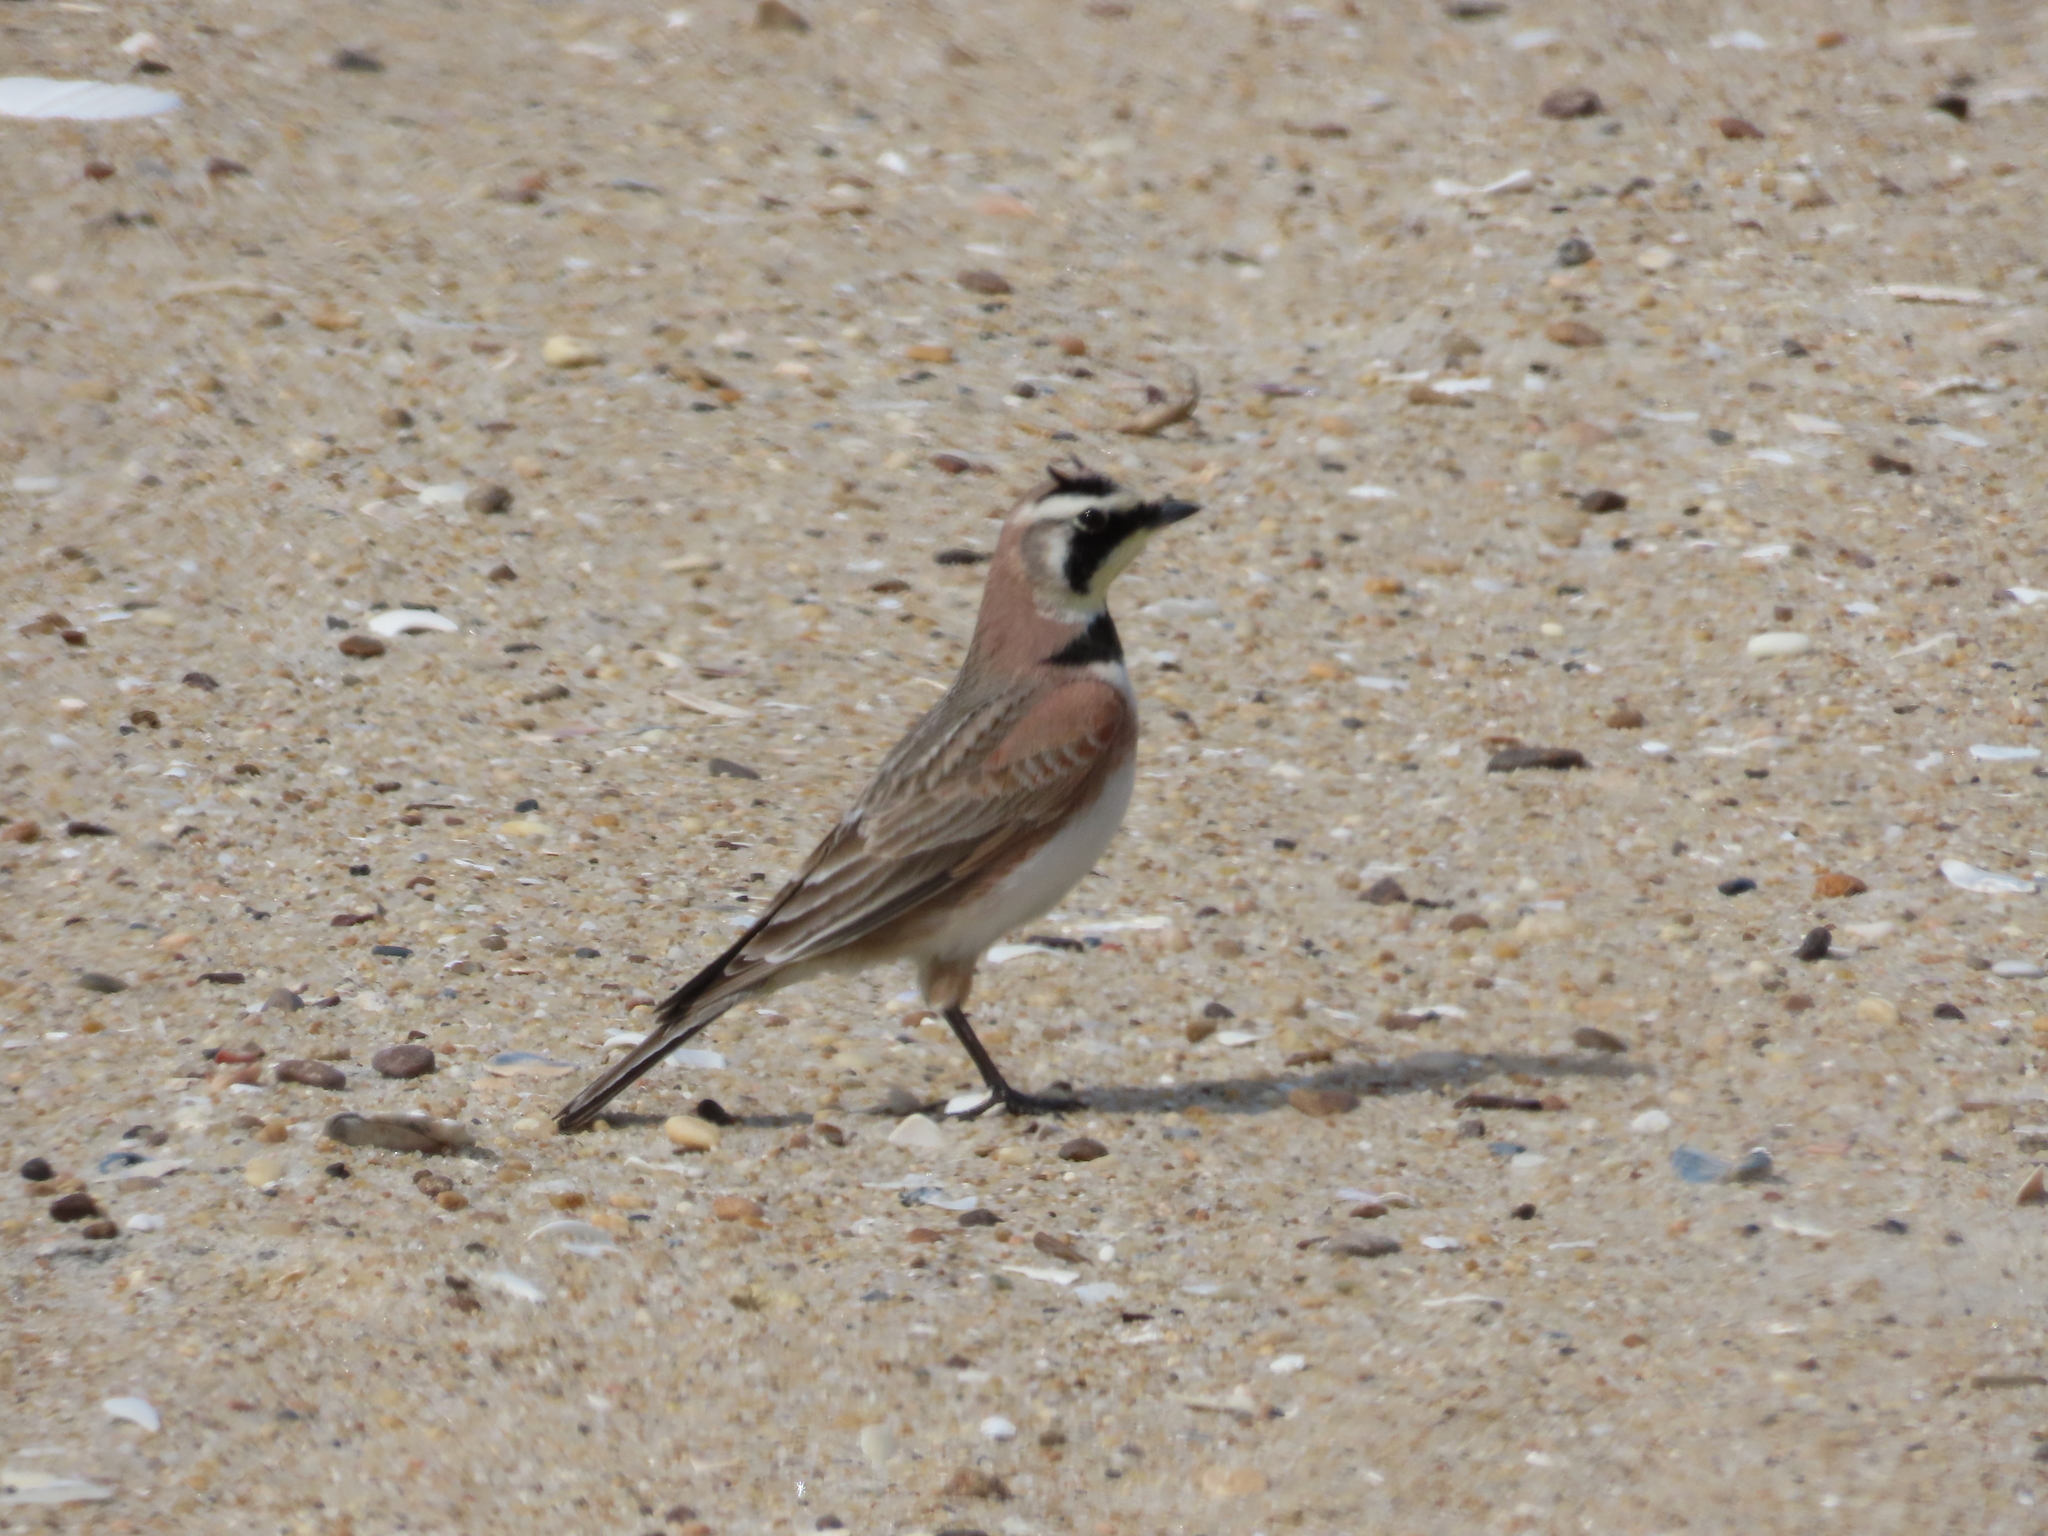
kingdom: Animalia
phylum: Chordata
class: Aves
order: Passeriformes
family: Alaudidae
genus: Eremophila
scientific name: Eremophila alpestris
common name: Horned lark
